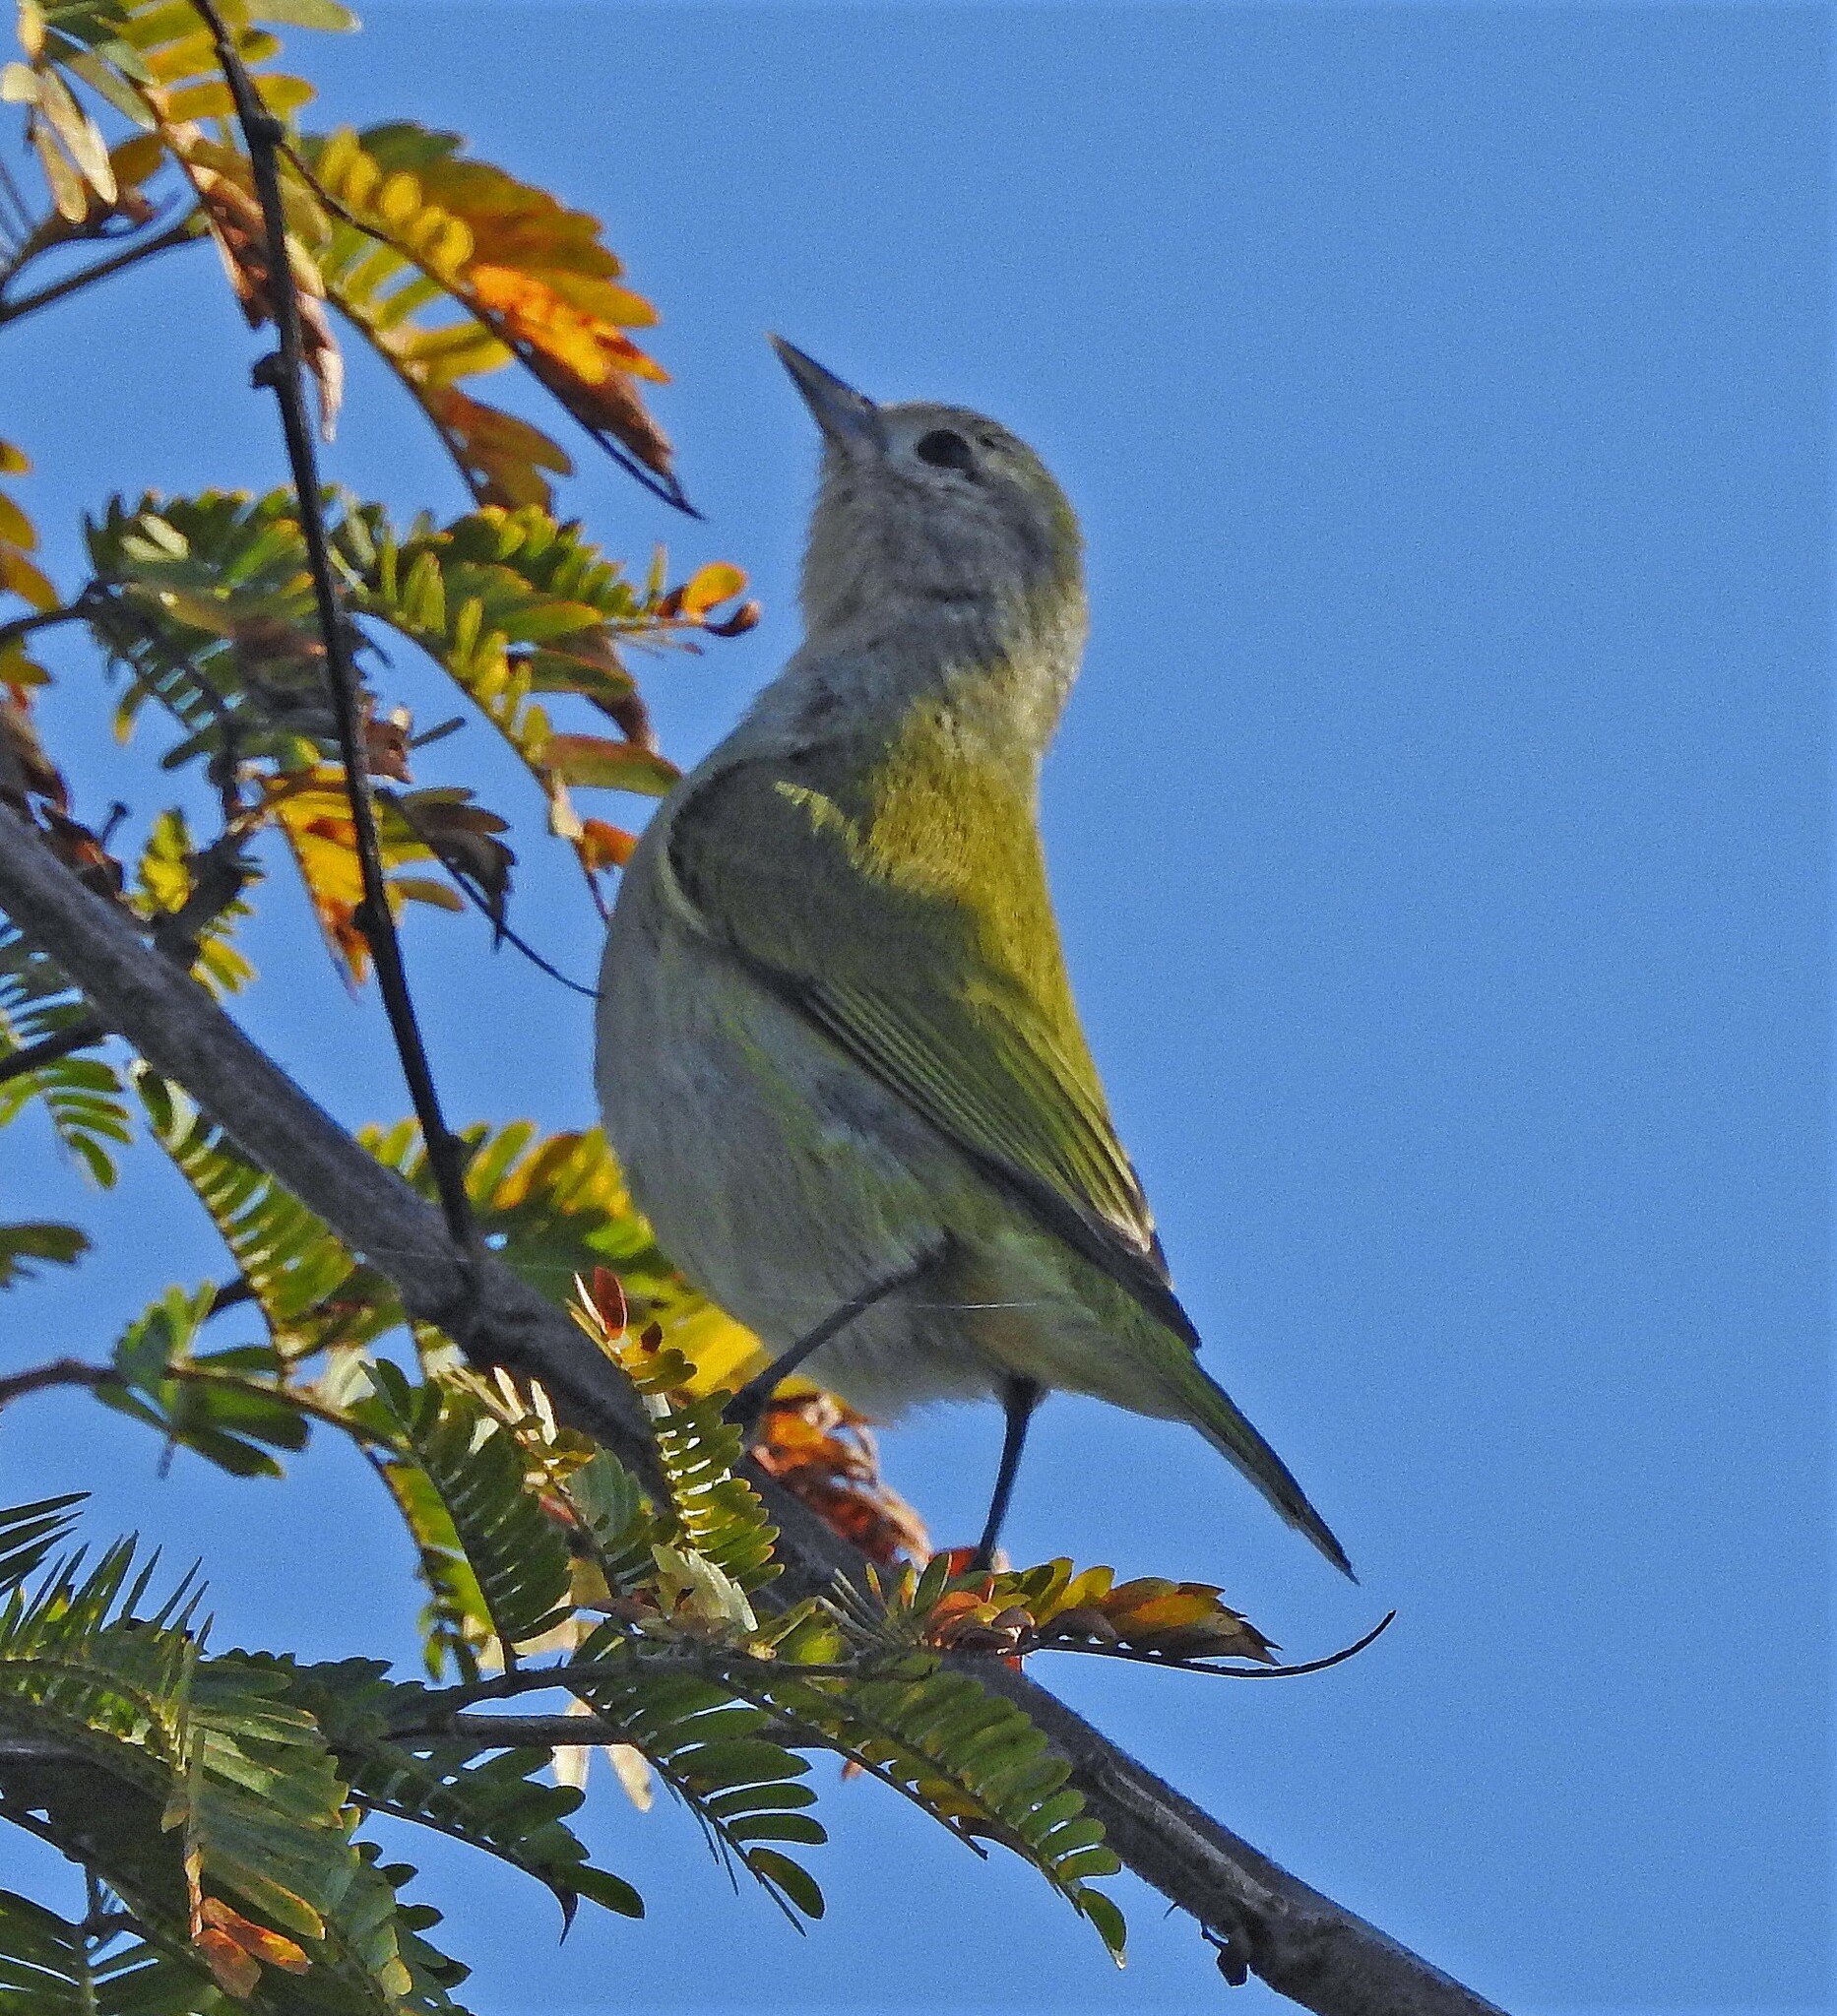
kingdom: Animalia
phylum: Chordata
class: Aves
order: Passeriformes
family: Thraupidae
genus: Conirostrum
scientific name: Conirostrum speciosum
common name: Chestnut-vented conebill
